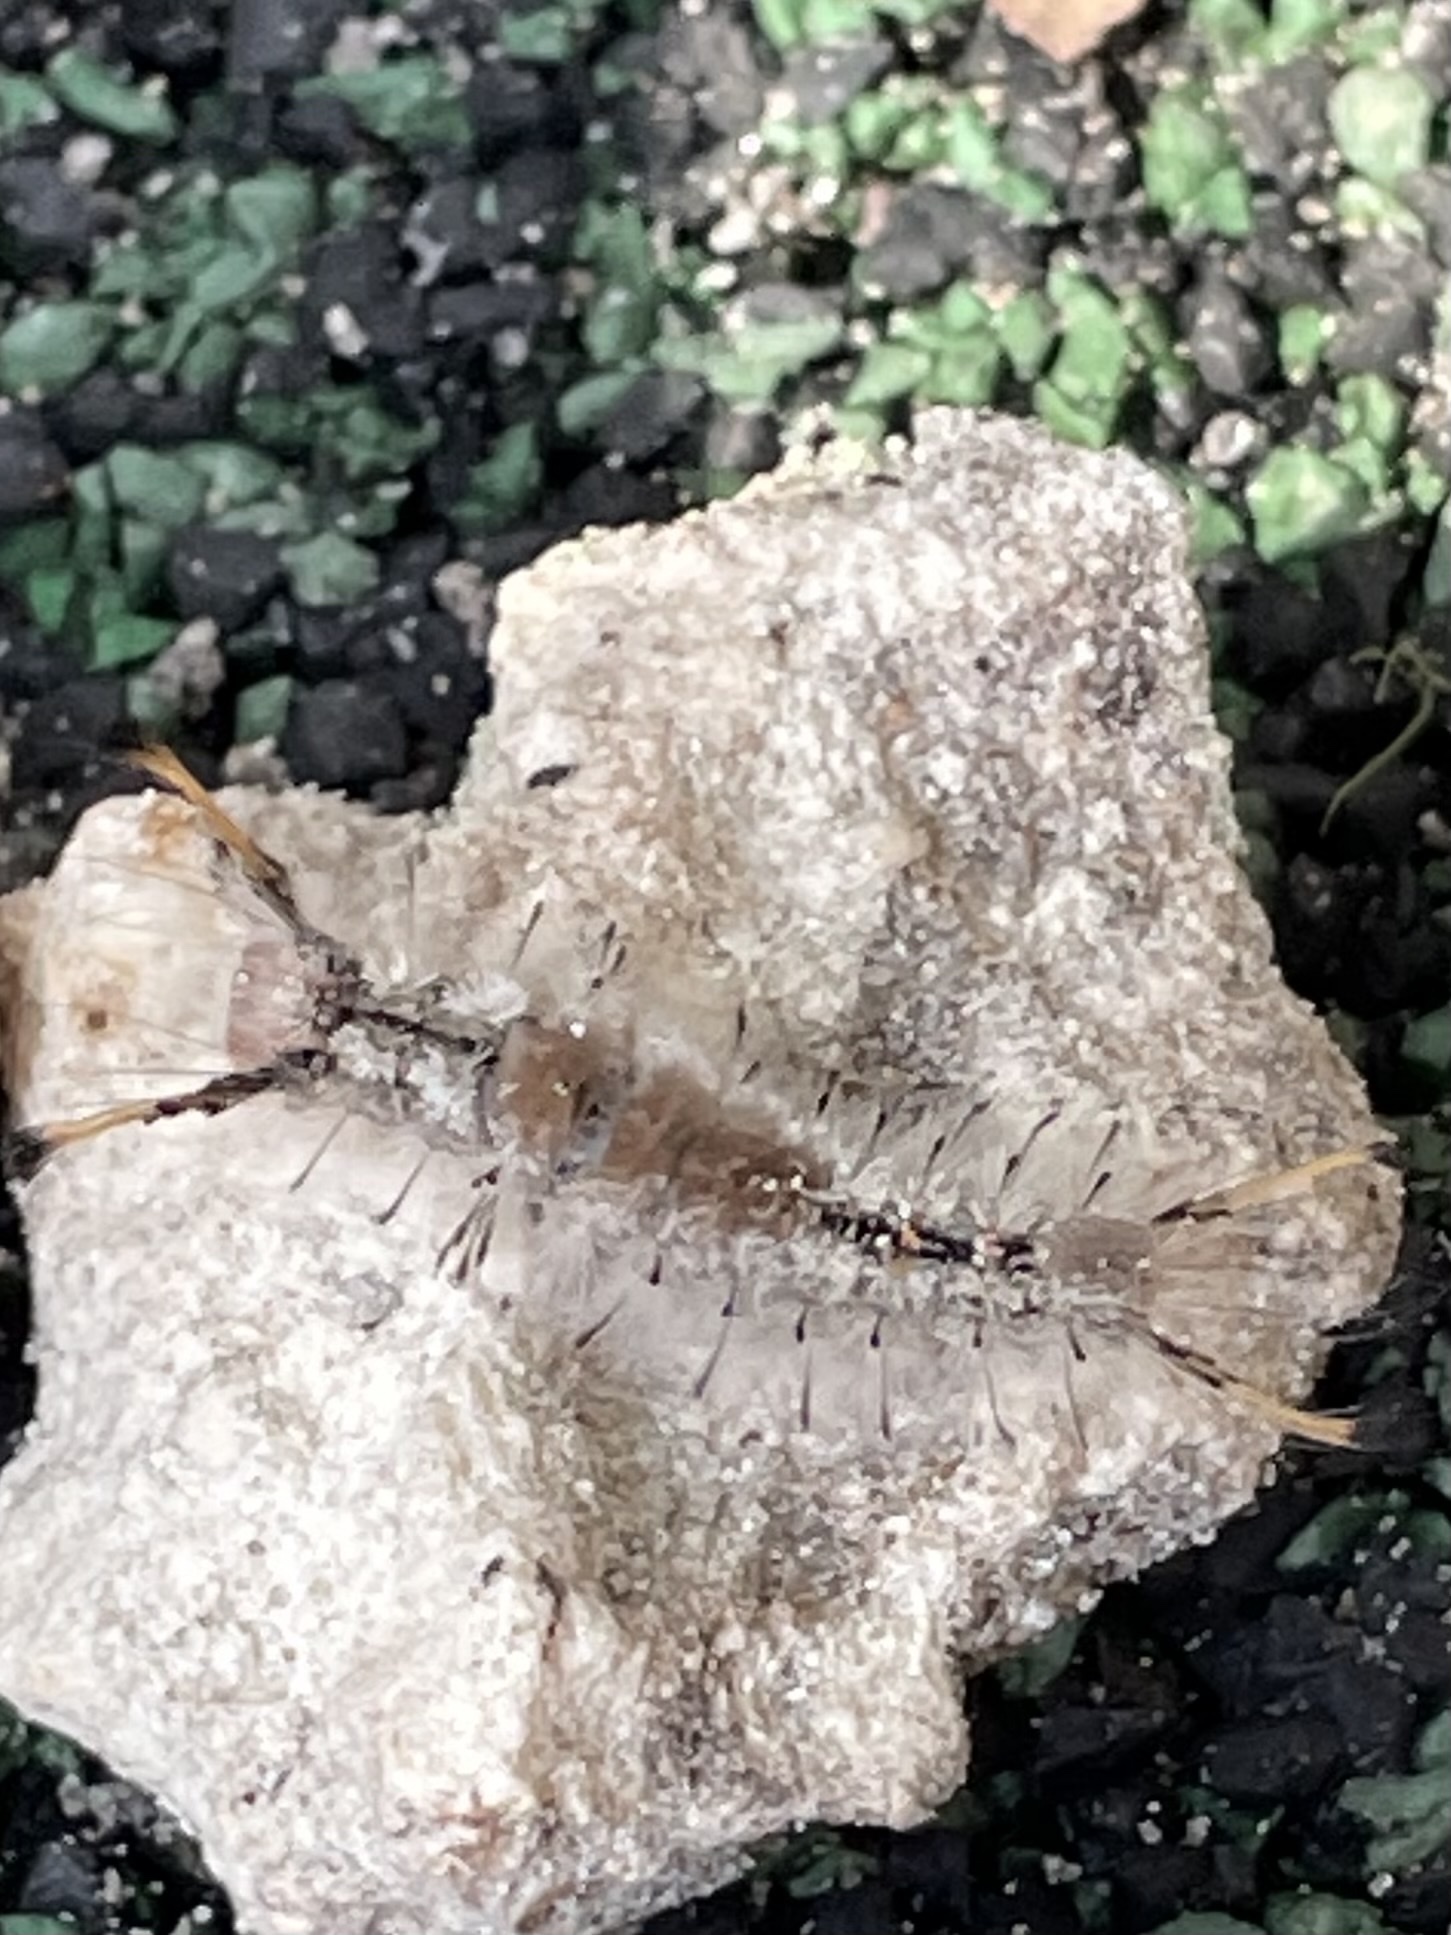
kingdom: Animalia
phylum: Arthropoda
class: Insecta
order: Lepidoptera
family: Erebidae
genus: Dasychira
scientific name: Dasychira meridionalis
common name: Southern tussock moth
